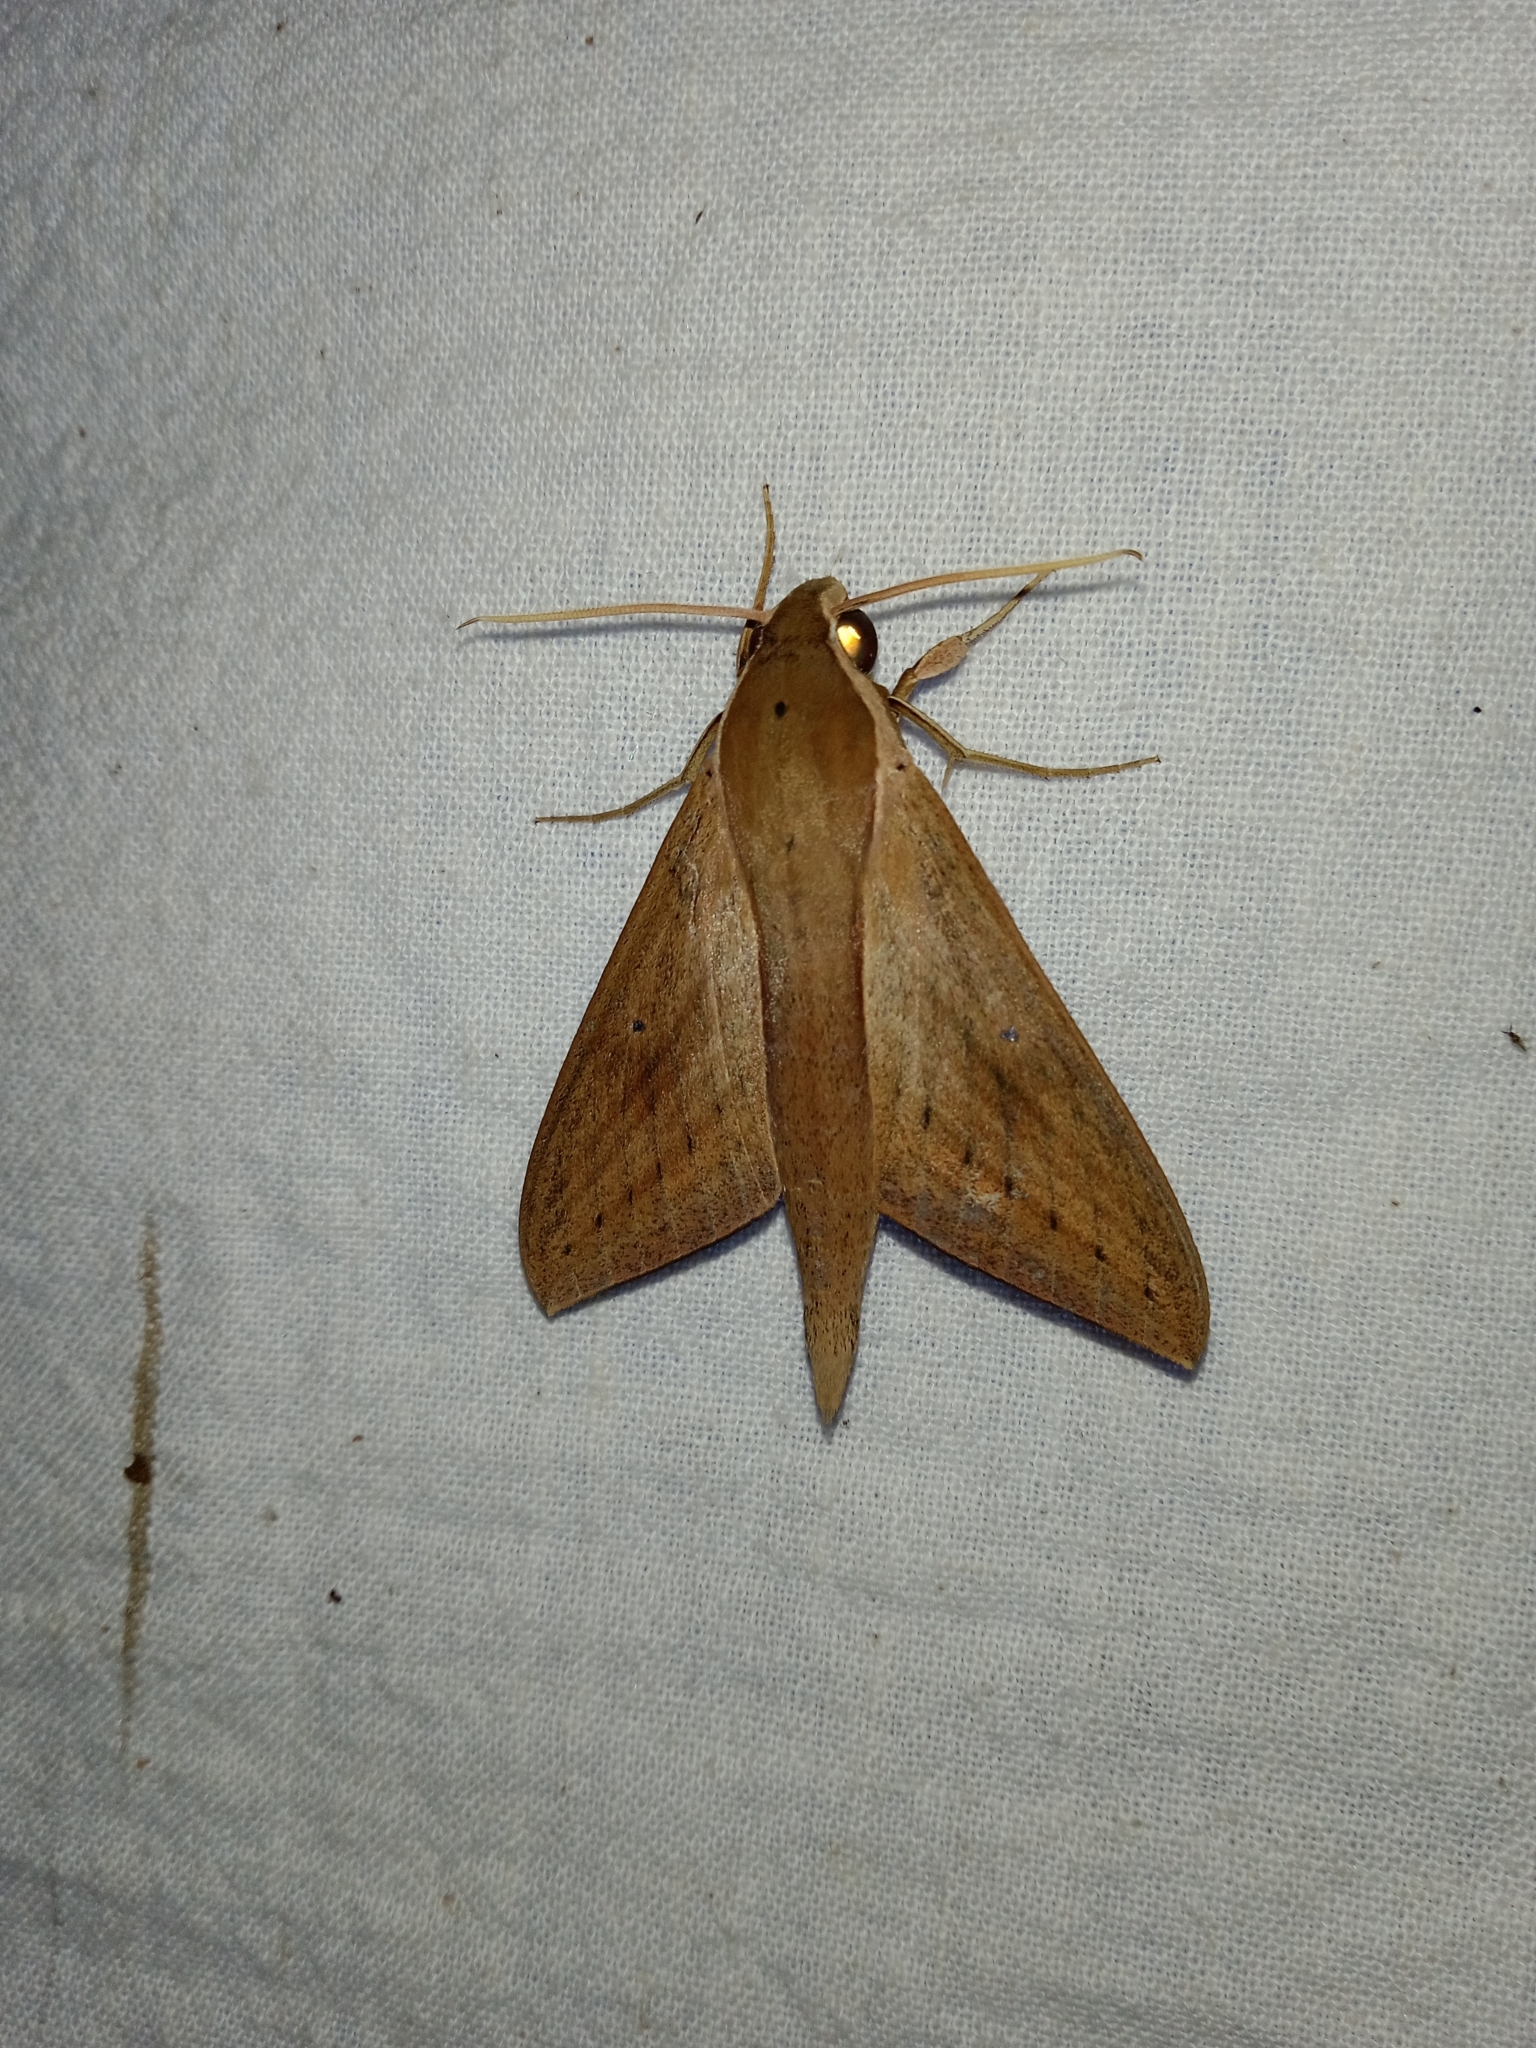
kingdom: Animalia
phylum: Arthropoda
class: Insecta
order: Lepidoptera
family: Sphingidae
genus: Theretra
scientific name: Theretra rhesus
